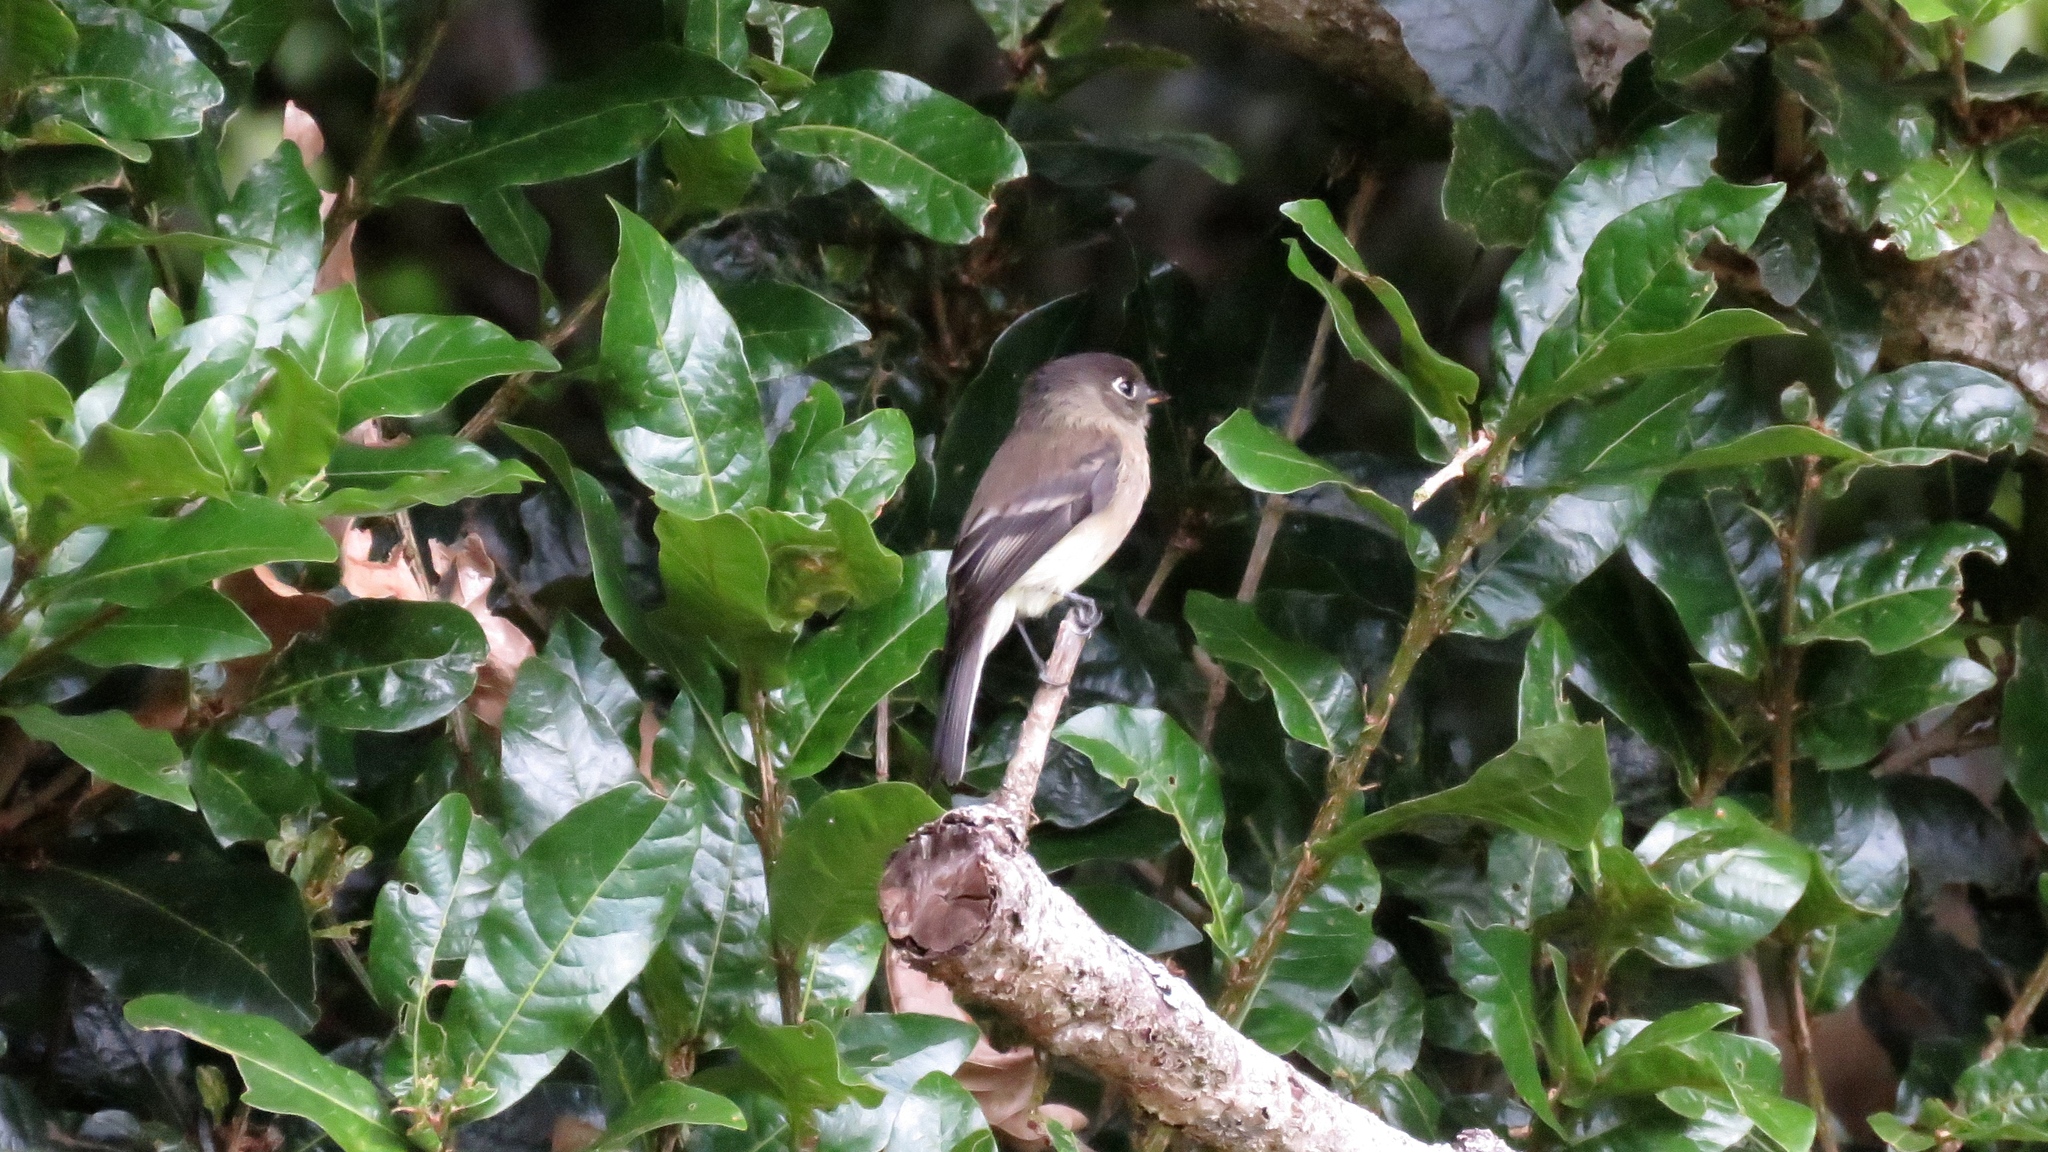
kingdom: Animalia
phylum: Chordata
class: Aves
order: Passeriformes
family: Tyrannidae
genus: Empidonax
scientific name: Empidonax atriceps
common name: Black-capped flycatcher
